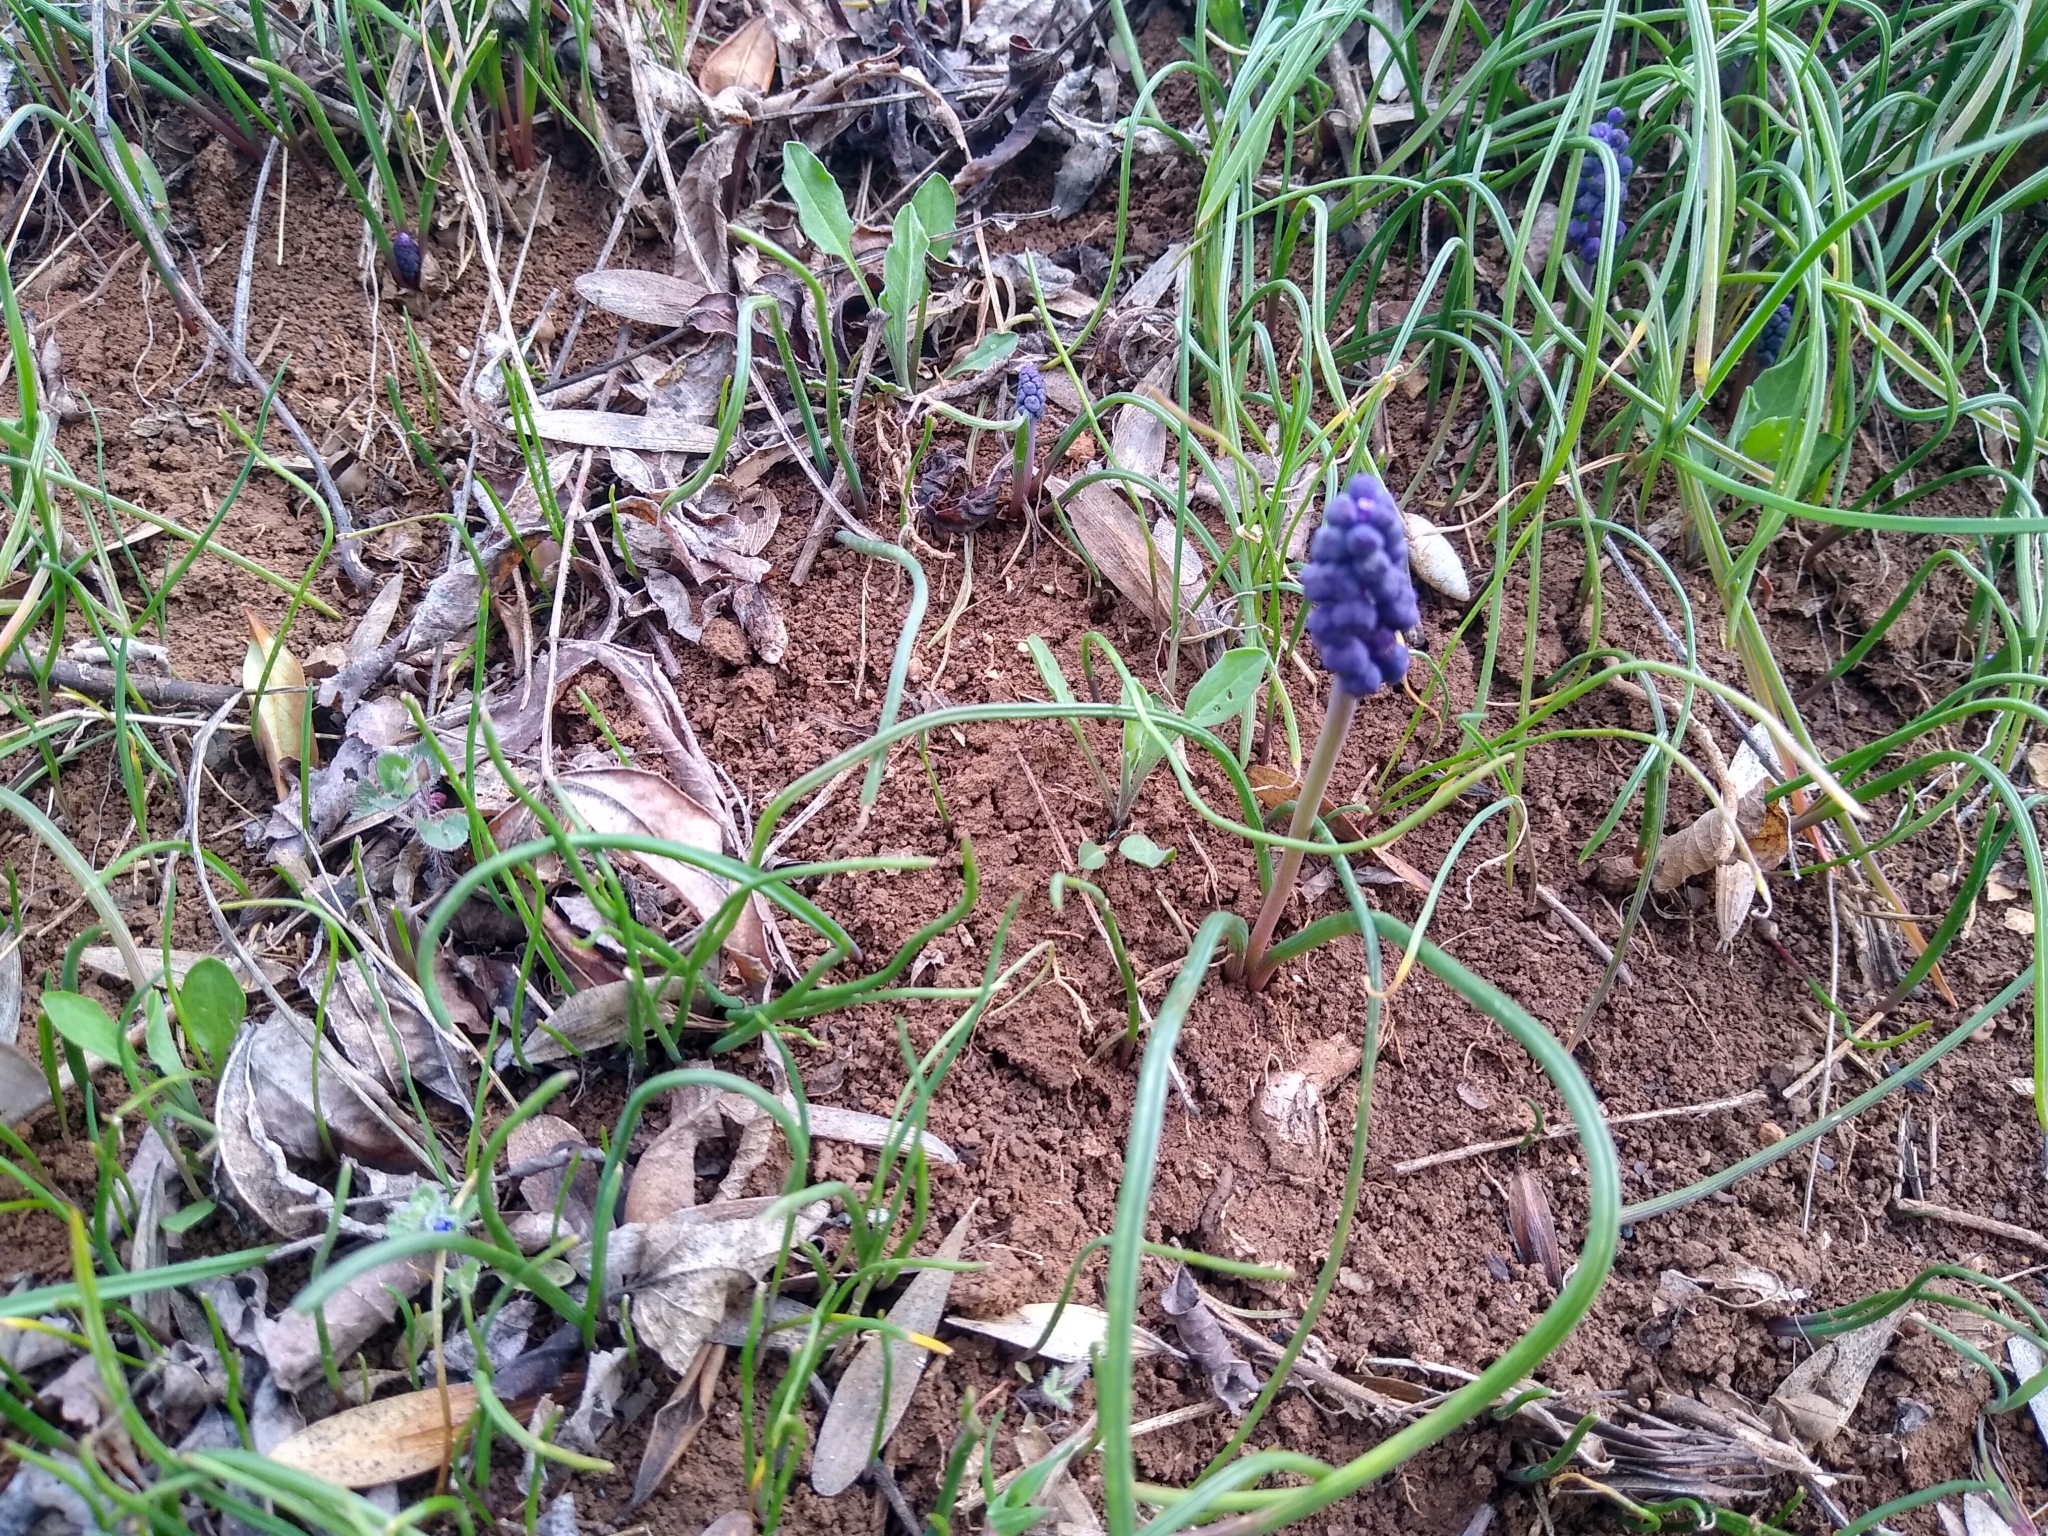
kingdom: Plantae
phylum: Tracheophyta
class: Liliopsida
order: Asparagales
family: Asparagaceae
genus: Muscari
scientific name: Muscari neglectum
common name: Grape-hyacinth
